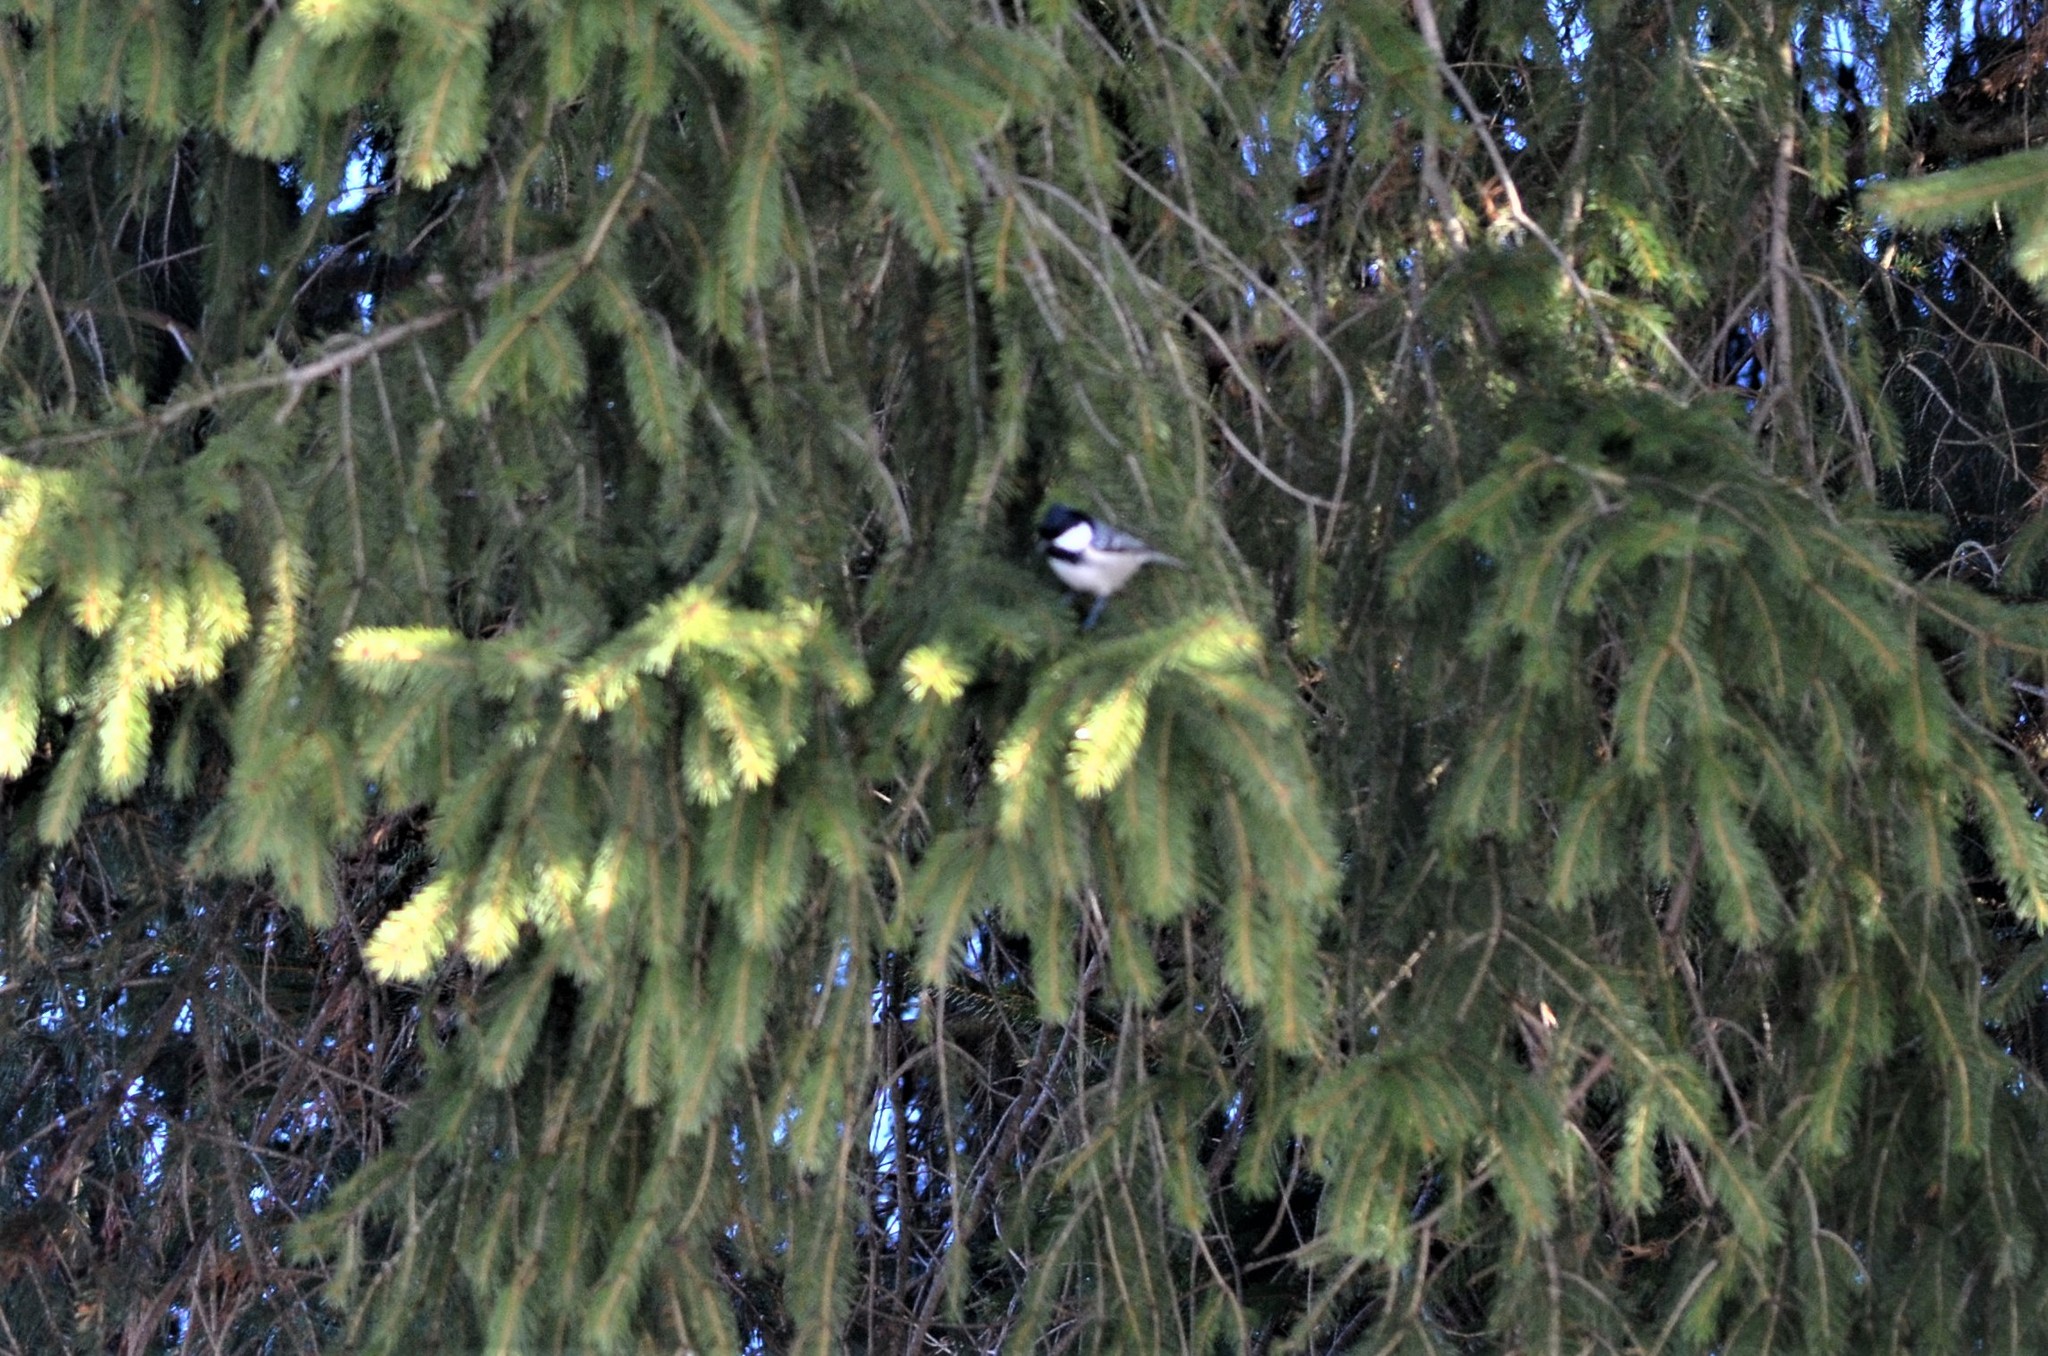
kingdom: Animalia
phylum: Chordata
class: Aves
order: Passeriformes
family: Paridae
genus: Periparus
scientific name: Periparus ater
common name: Coal tit
